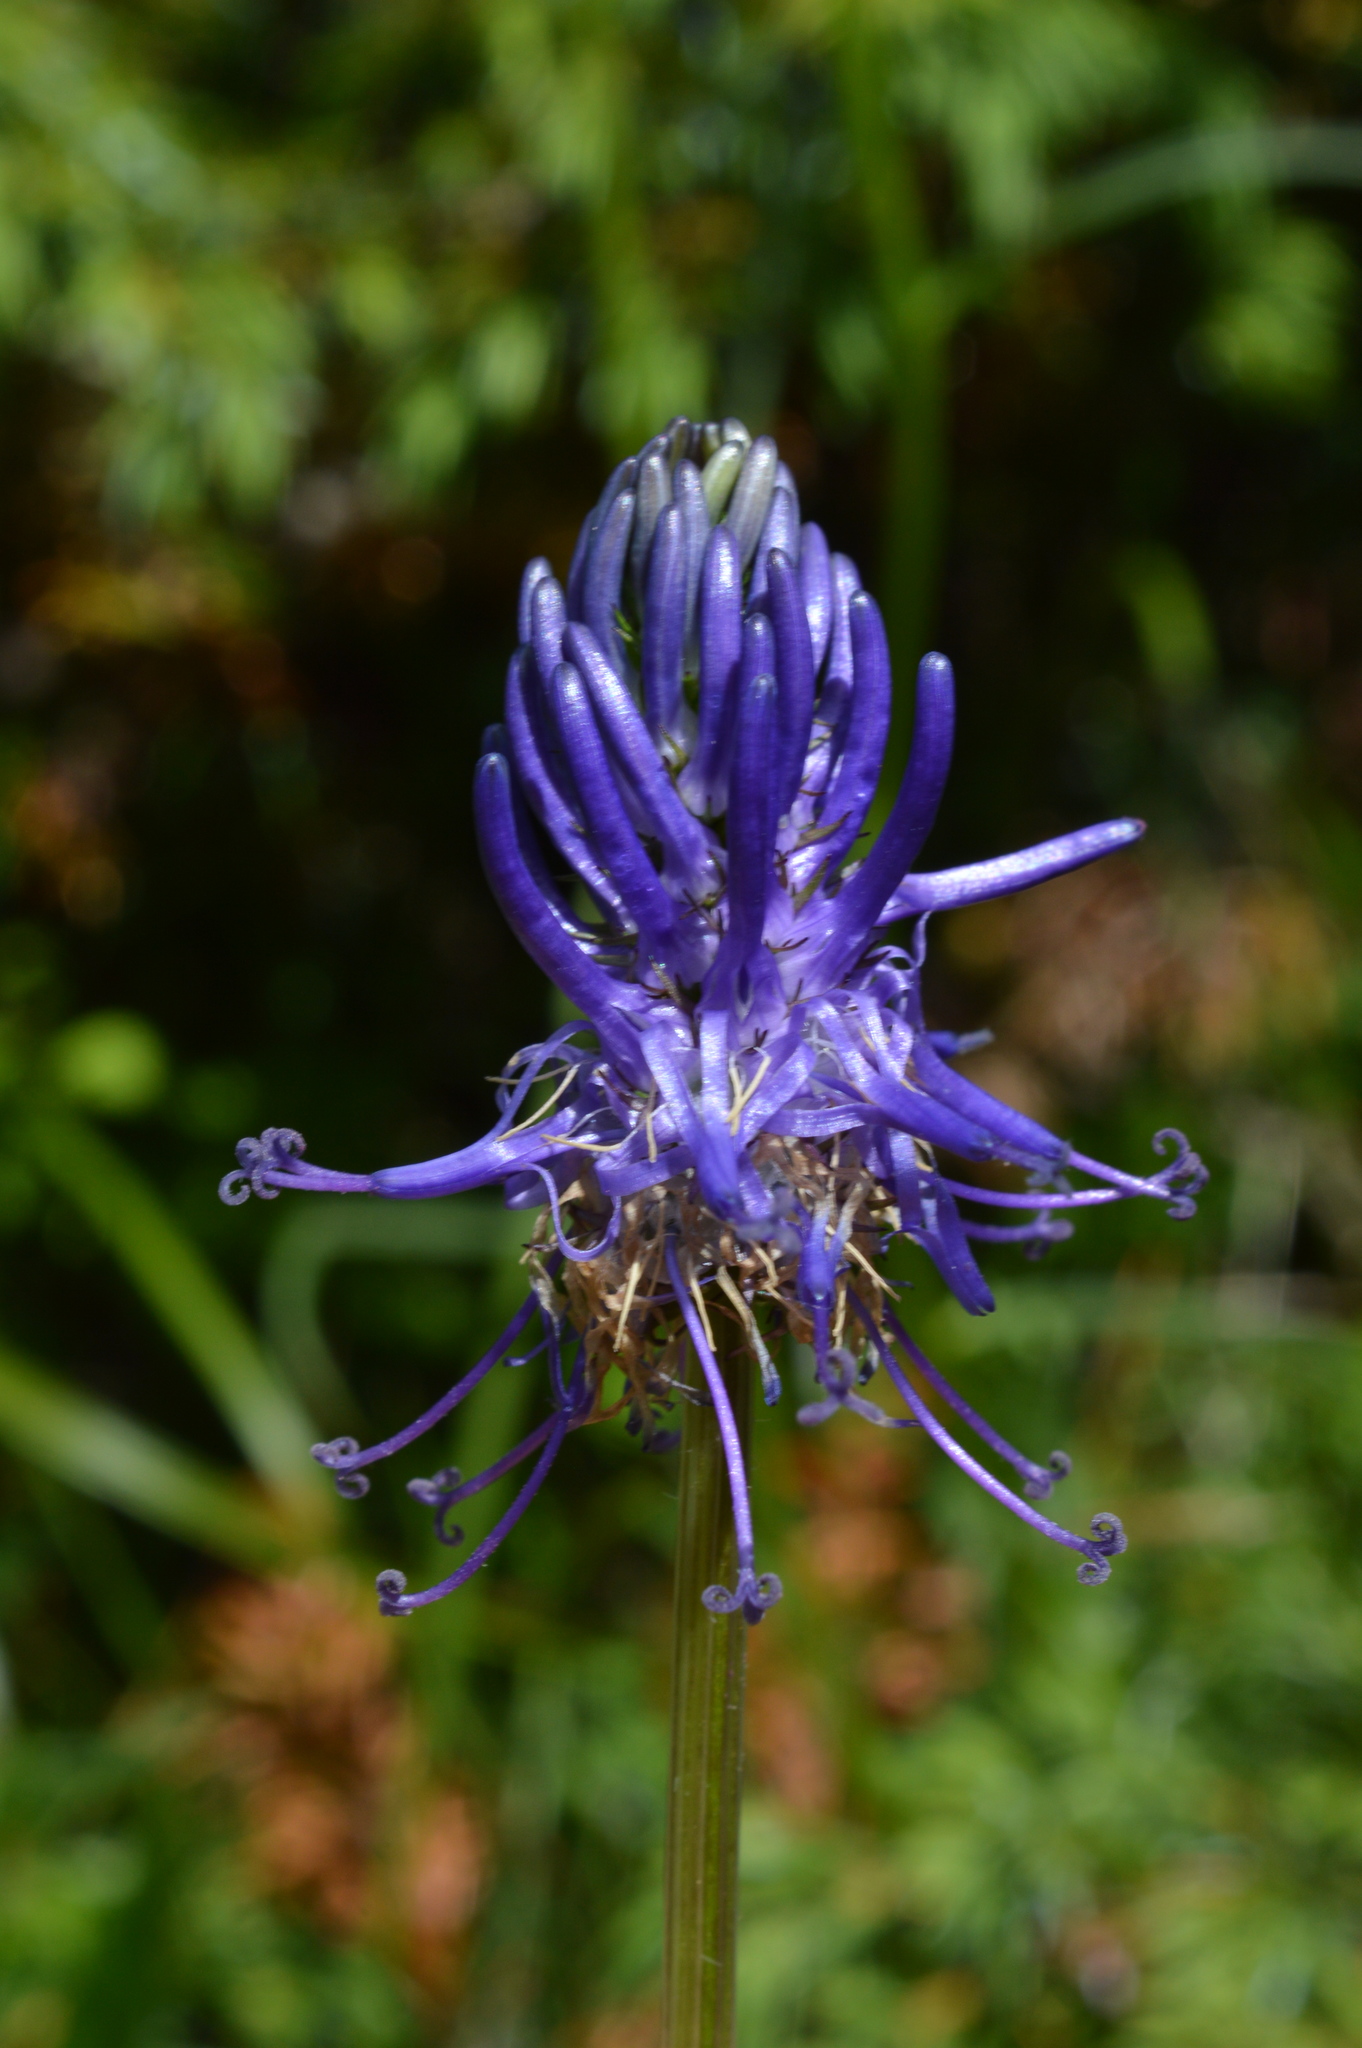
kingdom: Plantae
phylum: Tracheophyta
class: Magnoliopsida
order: Asterales
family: Campanulaceae
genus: Phyteuma
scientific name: Phyteuma betonicifolium
